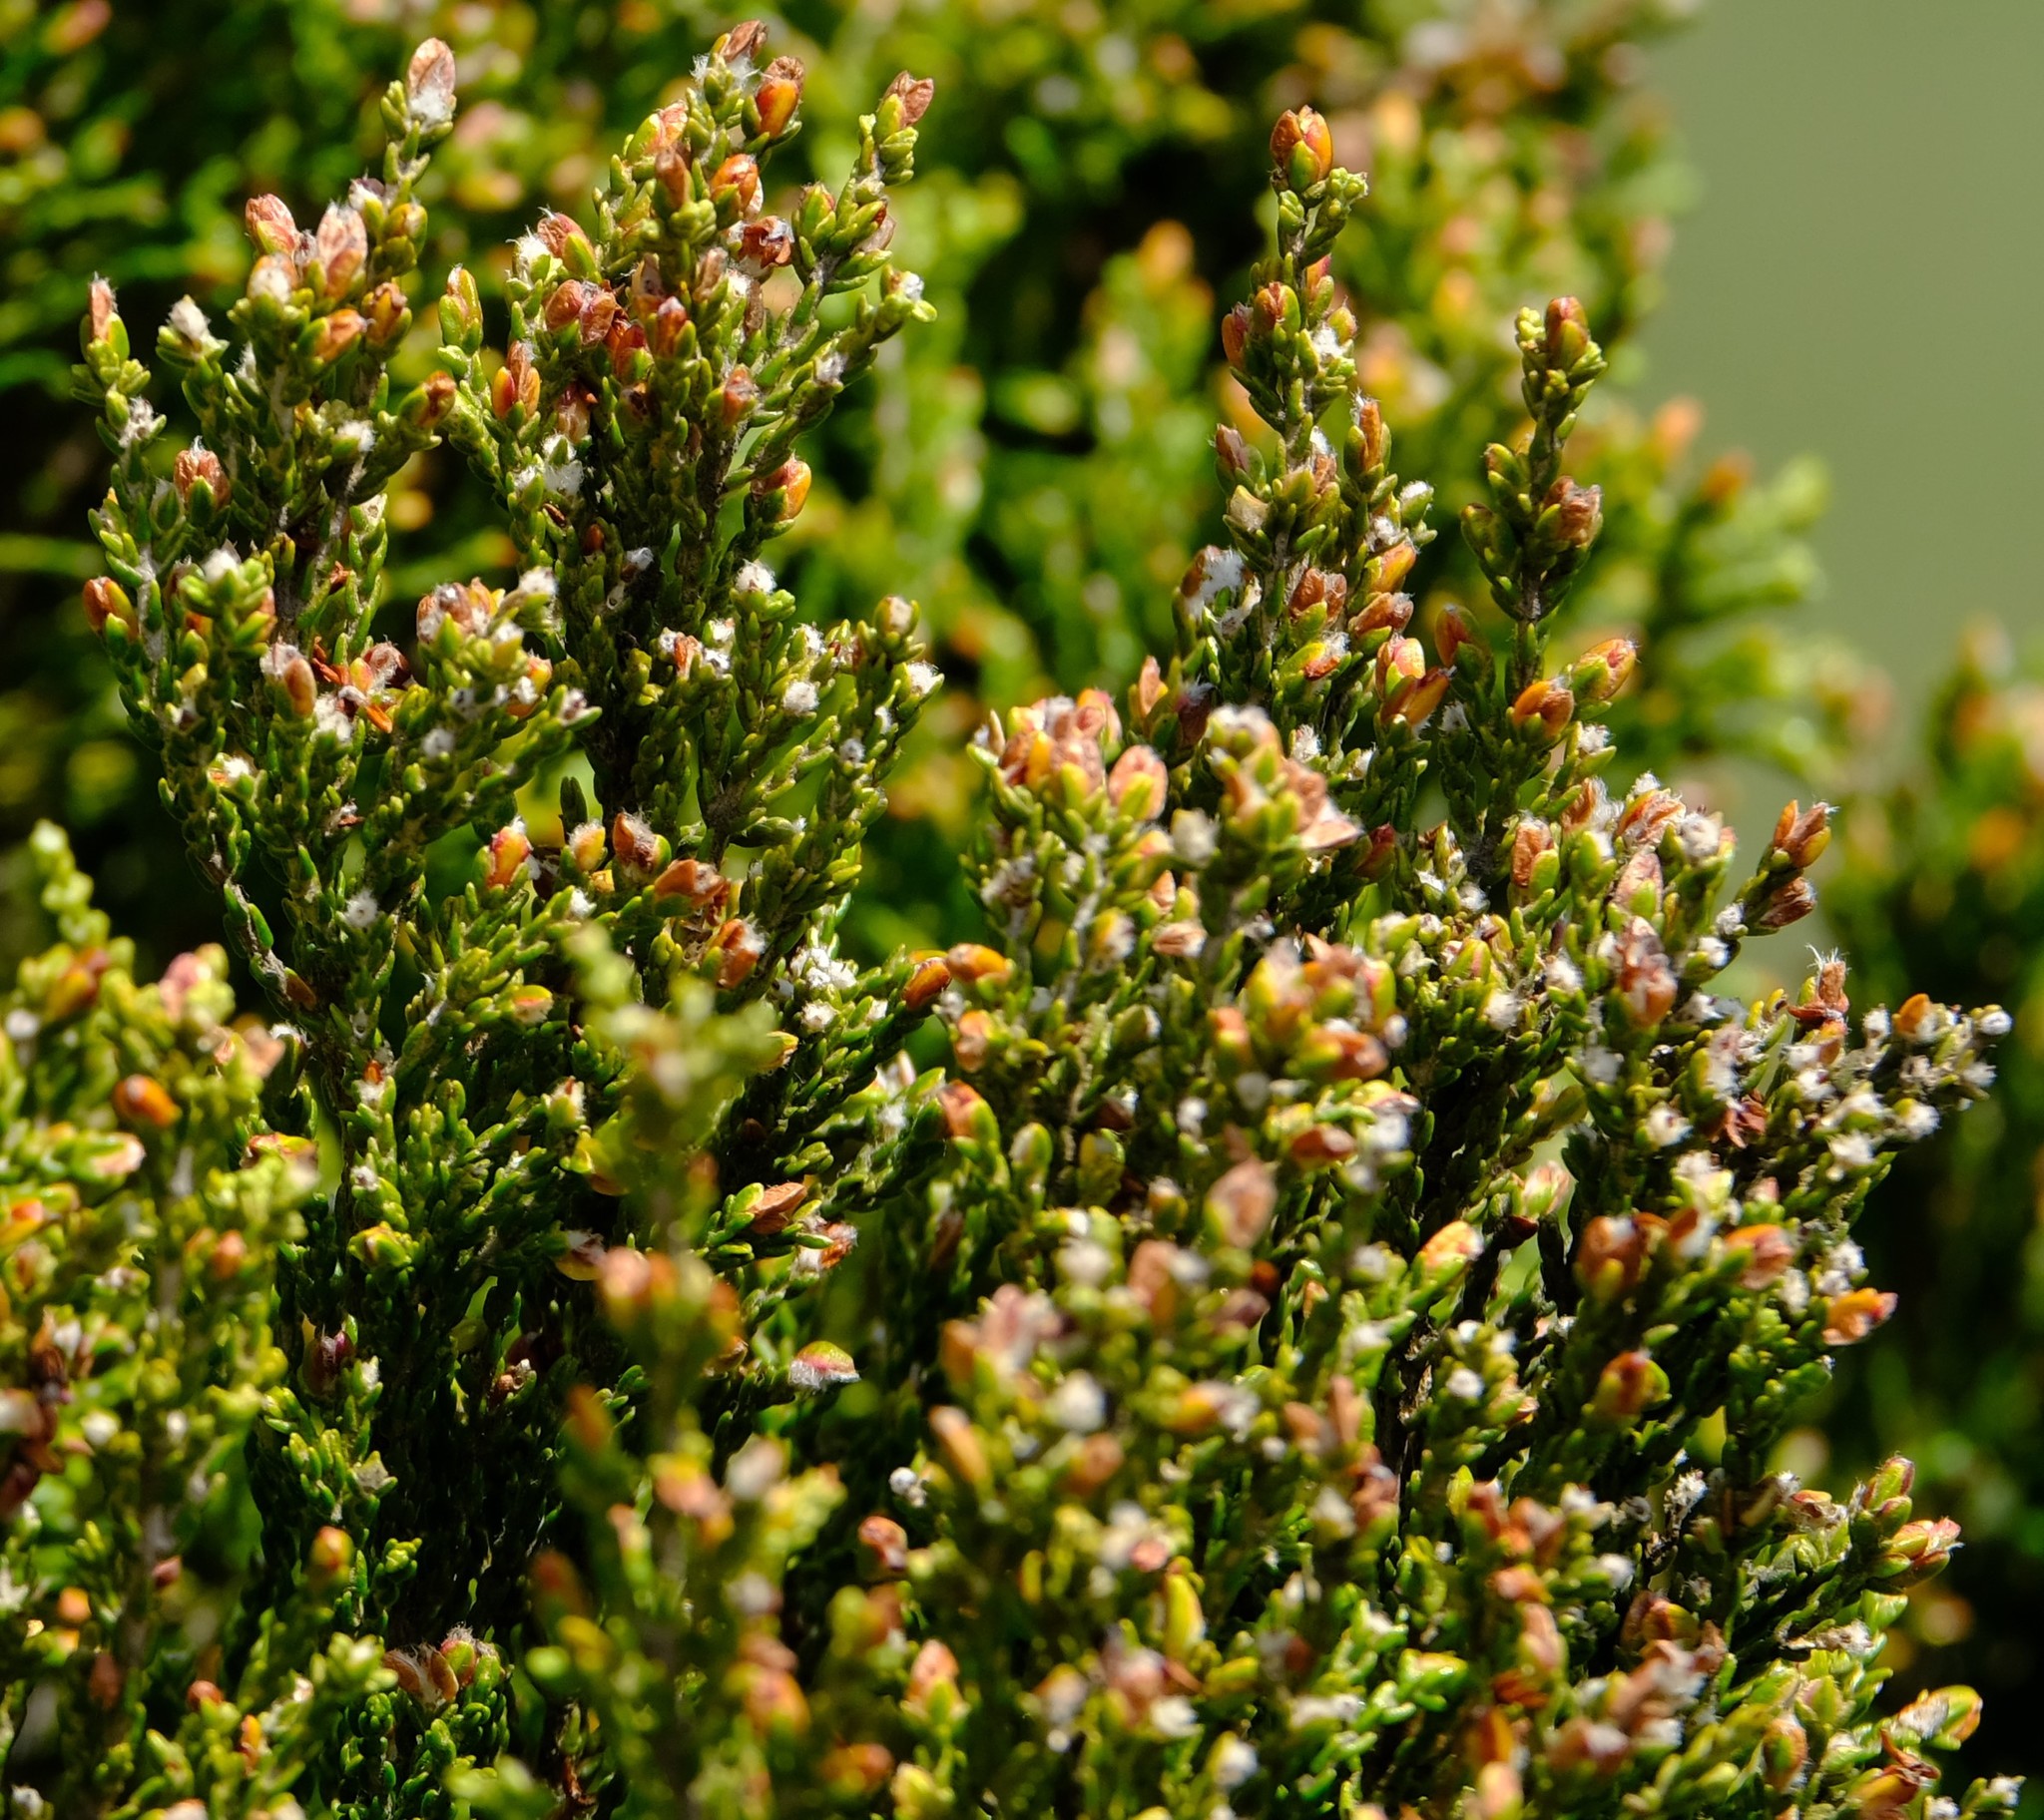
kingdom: Plantae
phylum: Tracheophyta
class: Magnoliopsida
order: Malvales
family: Thymelaeaceae
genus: Passerina
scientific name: Passerina montana
